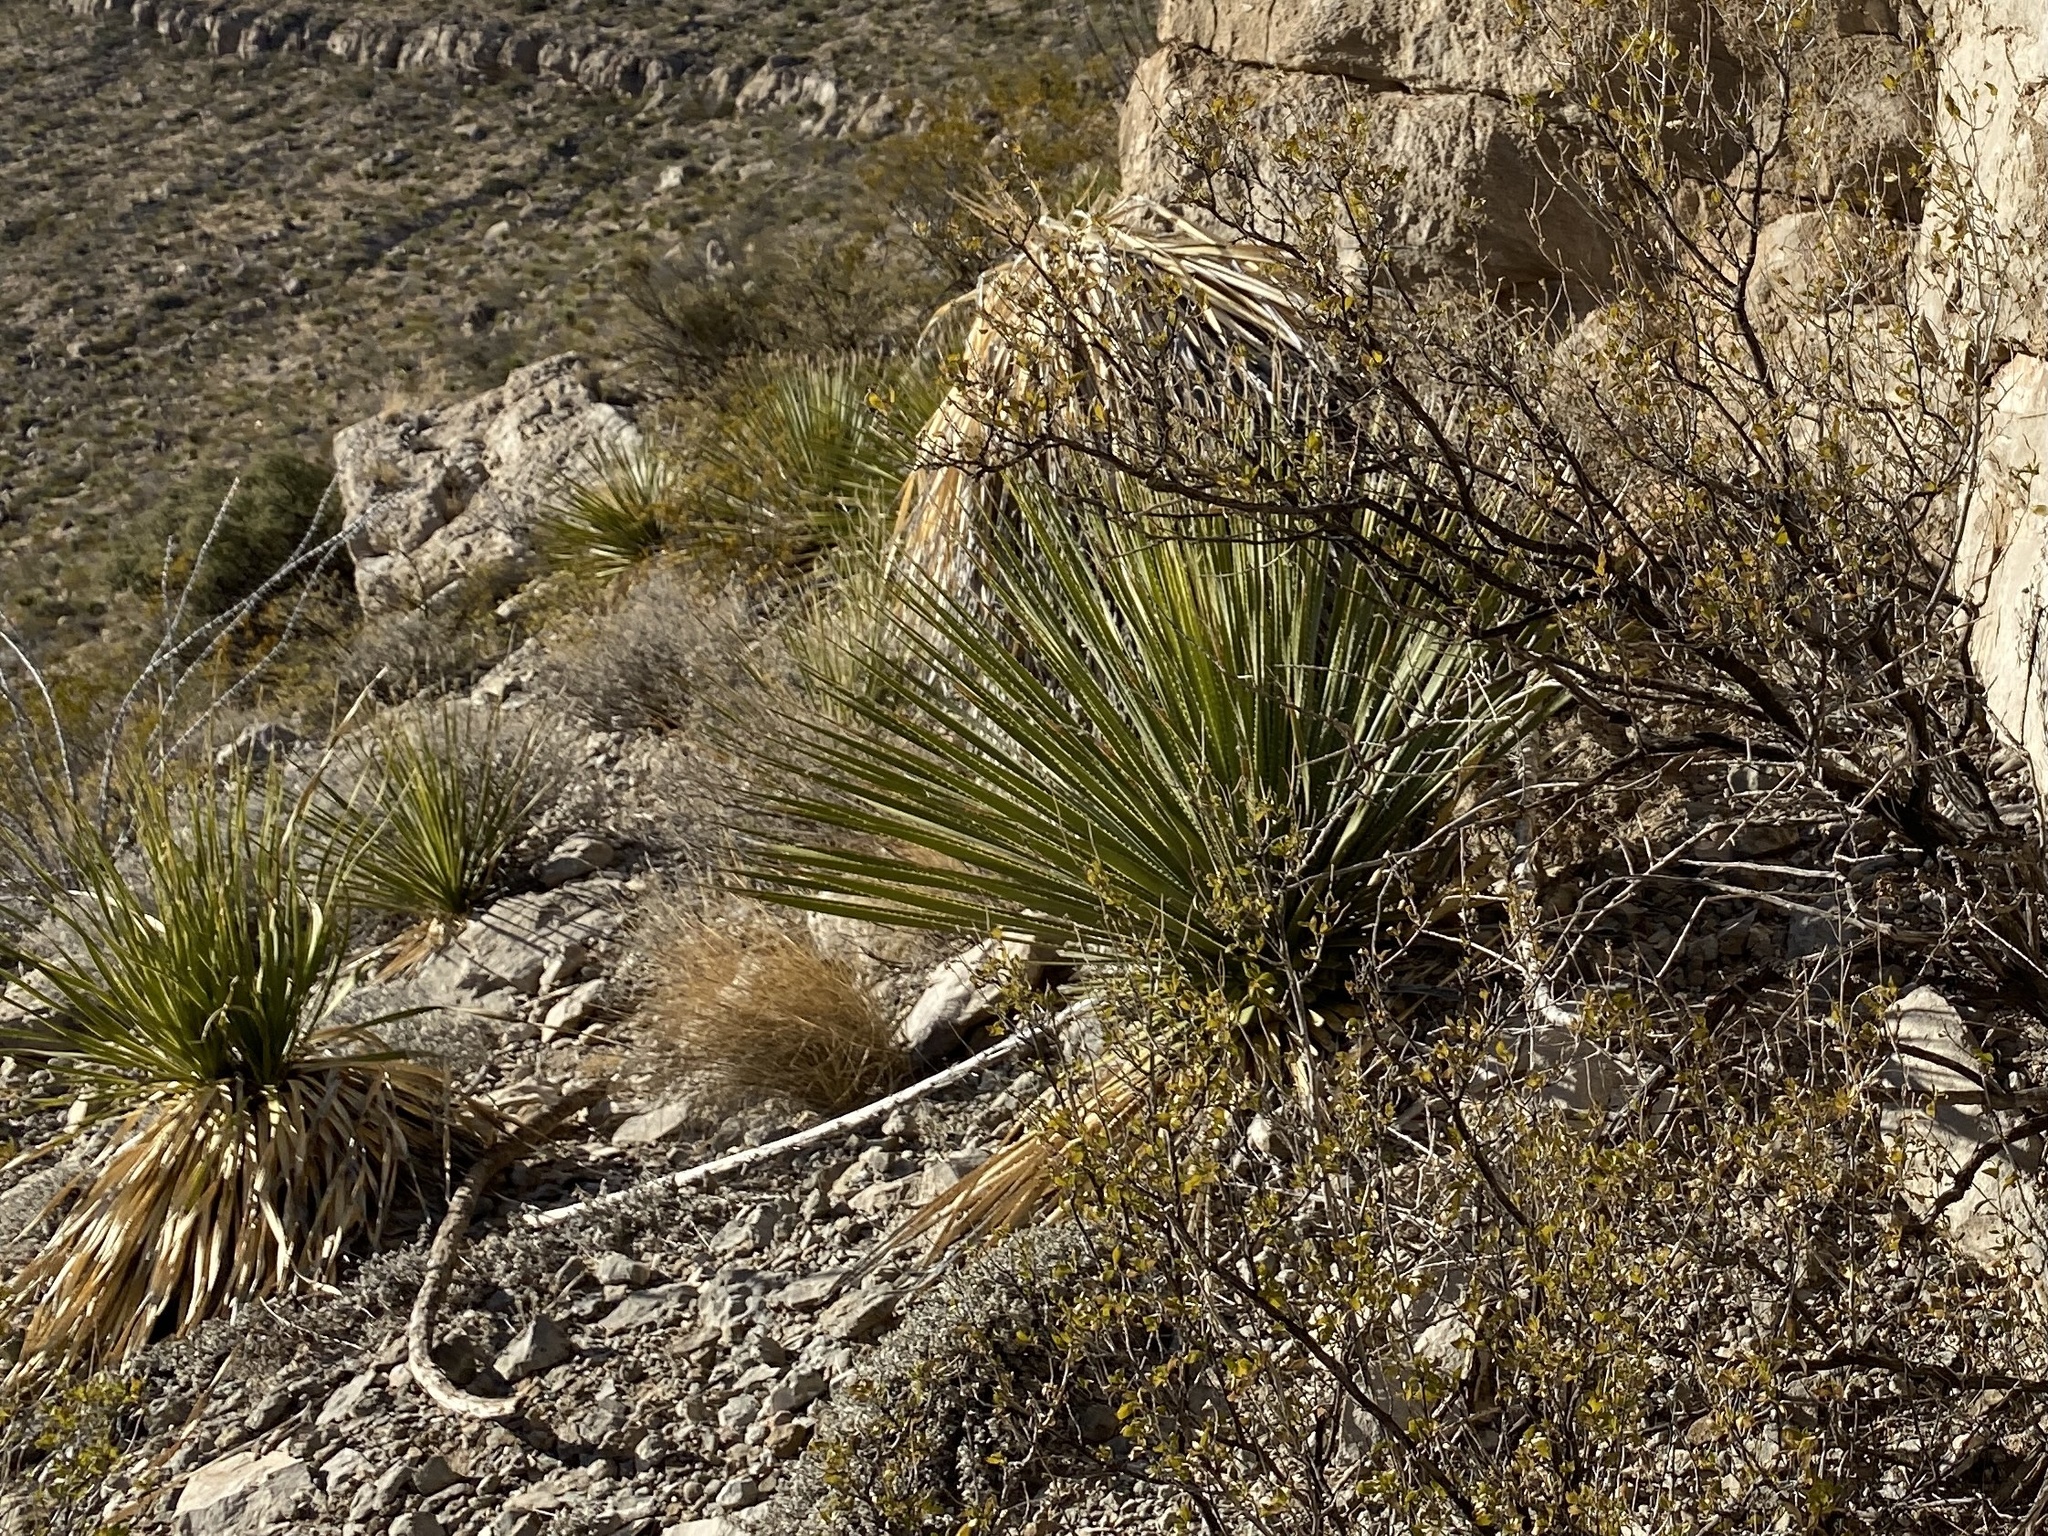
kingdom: Plantae
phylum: Tracheophyta
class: Liliopsida
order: Asparagales
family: Asparagaceae
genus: Dasylirion
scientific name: Dasylirion wheeleri
